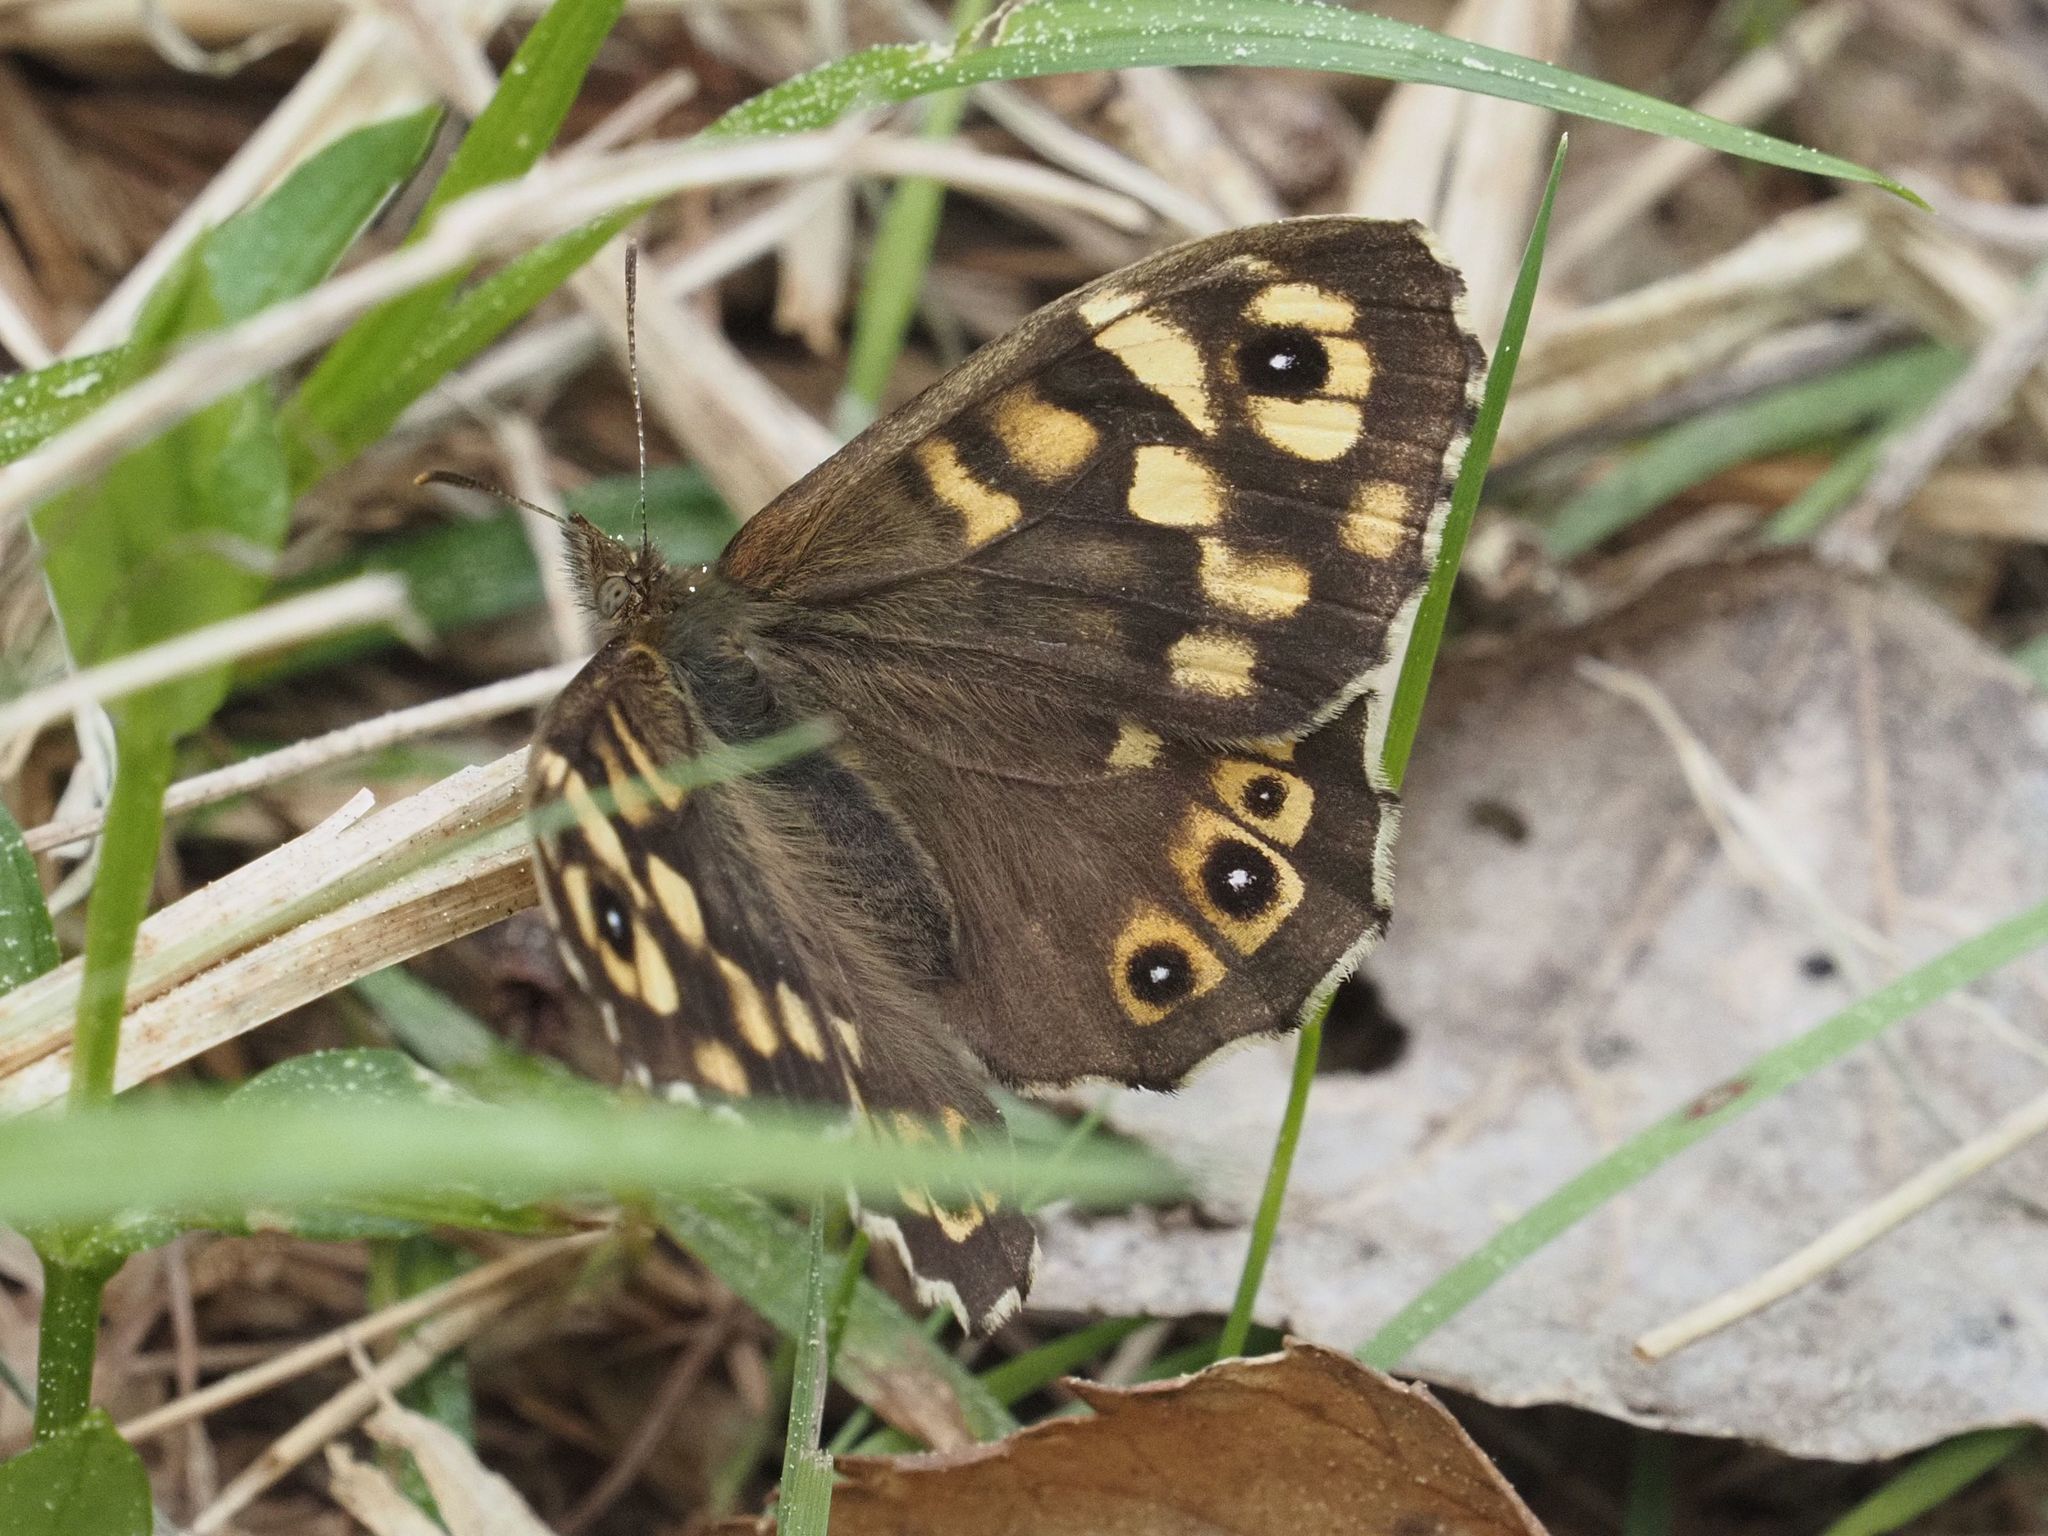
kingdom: Animalia
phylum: Arthropoda
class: Insecta
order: Lepidoptera
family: Nymphalidae
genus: Pararge
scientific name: Pararge aegeria
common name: Speckled wood
